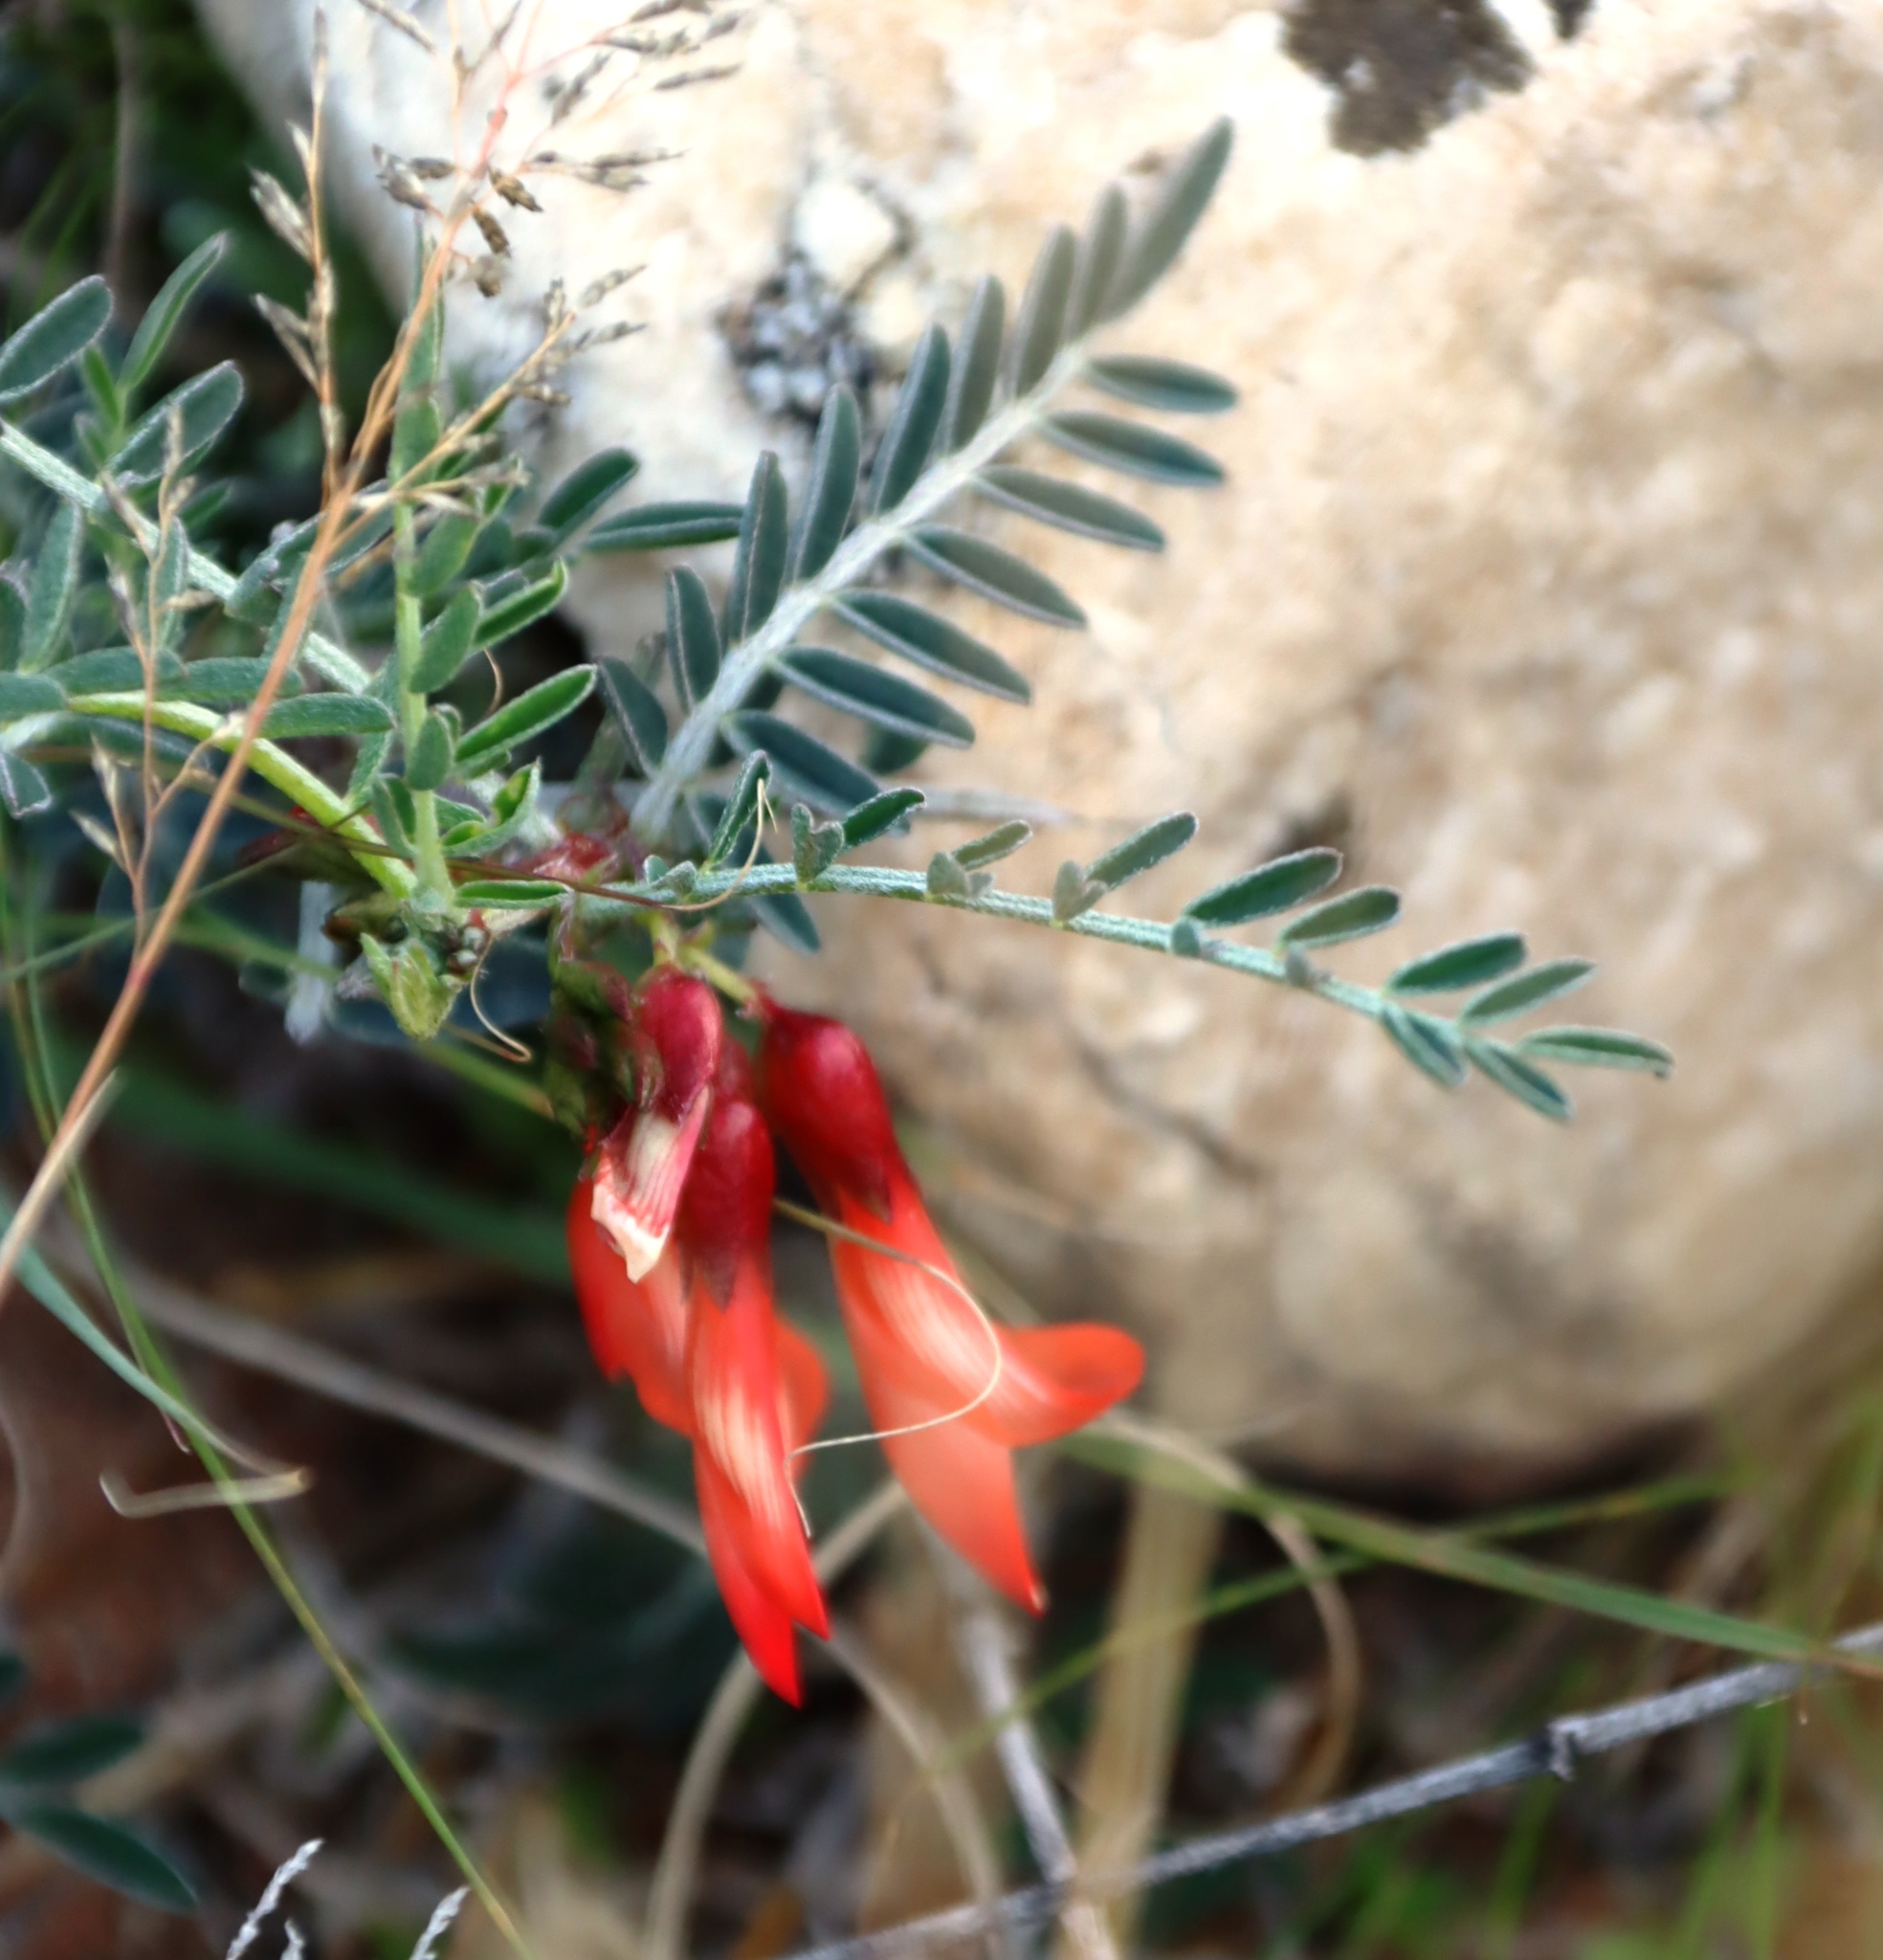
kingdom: Plantae
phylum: Tracheophyta
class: Magnoliopsida
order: Fabales
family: Fabaceae
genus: Lessertia
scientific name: Lessertia frutescens
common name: Balloon-pea
